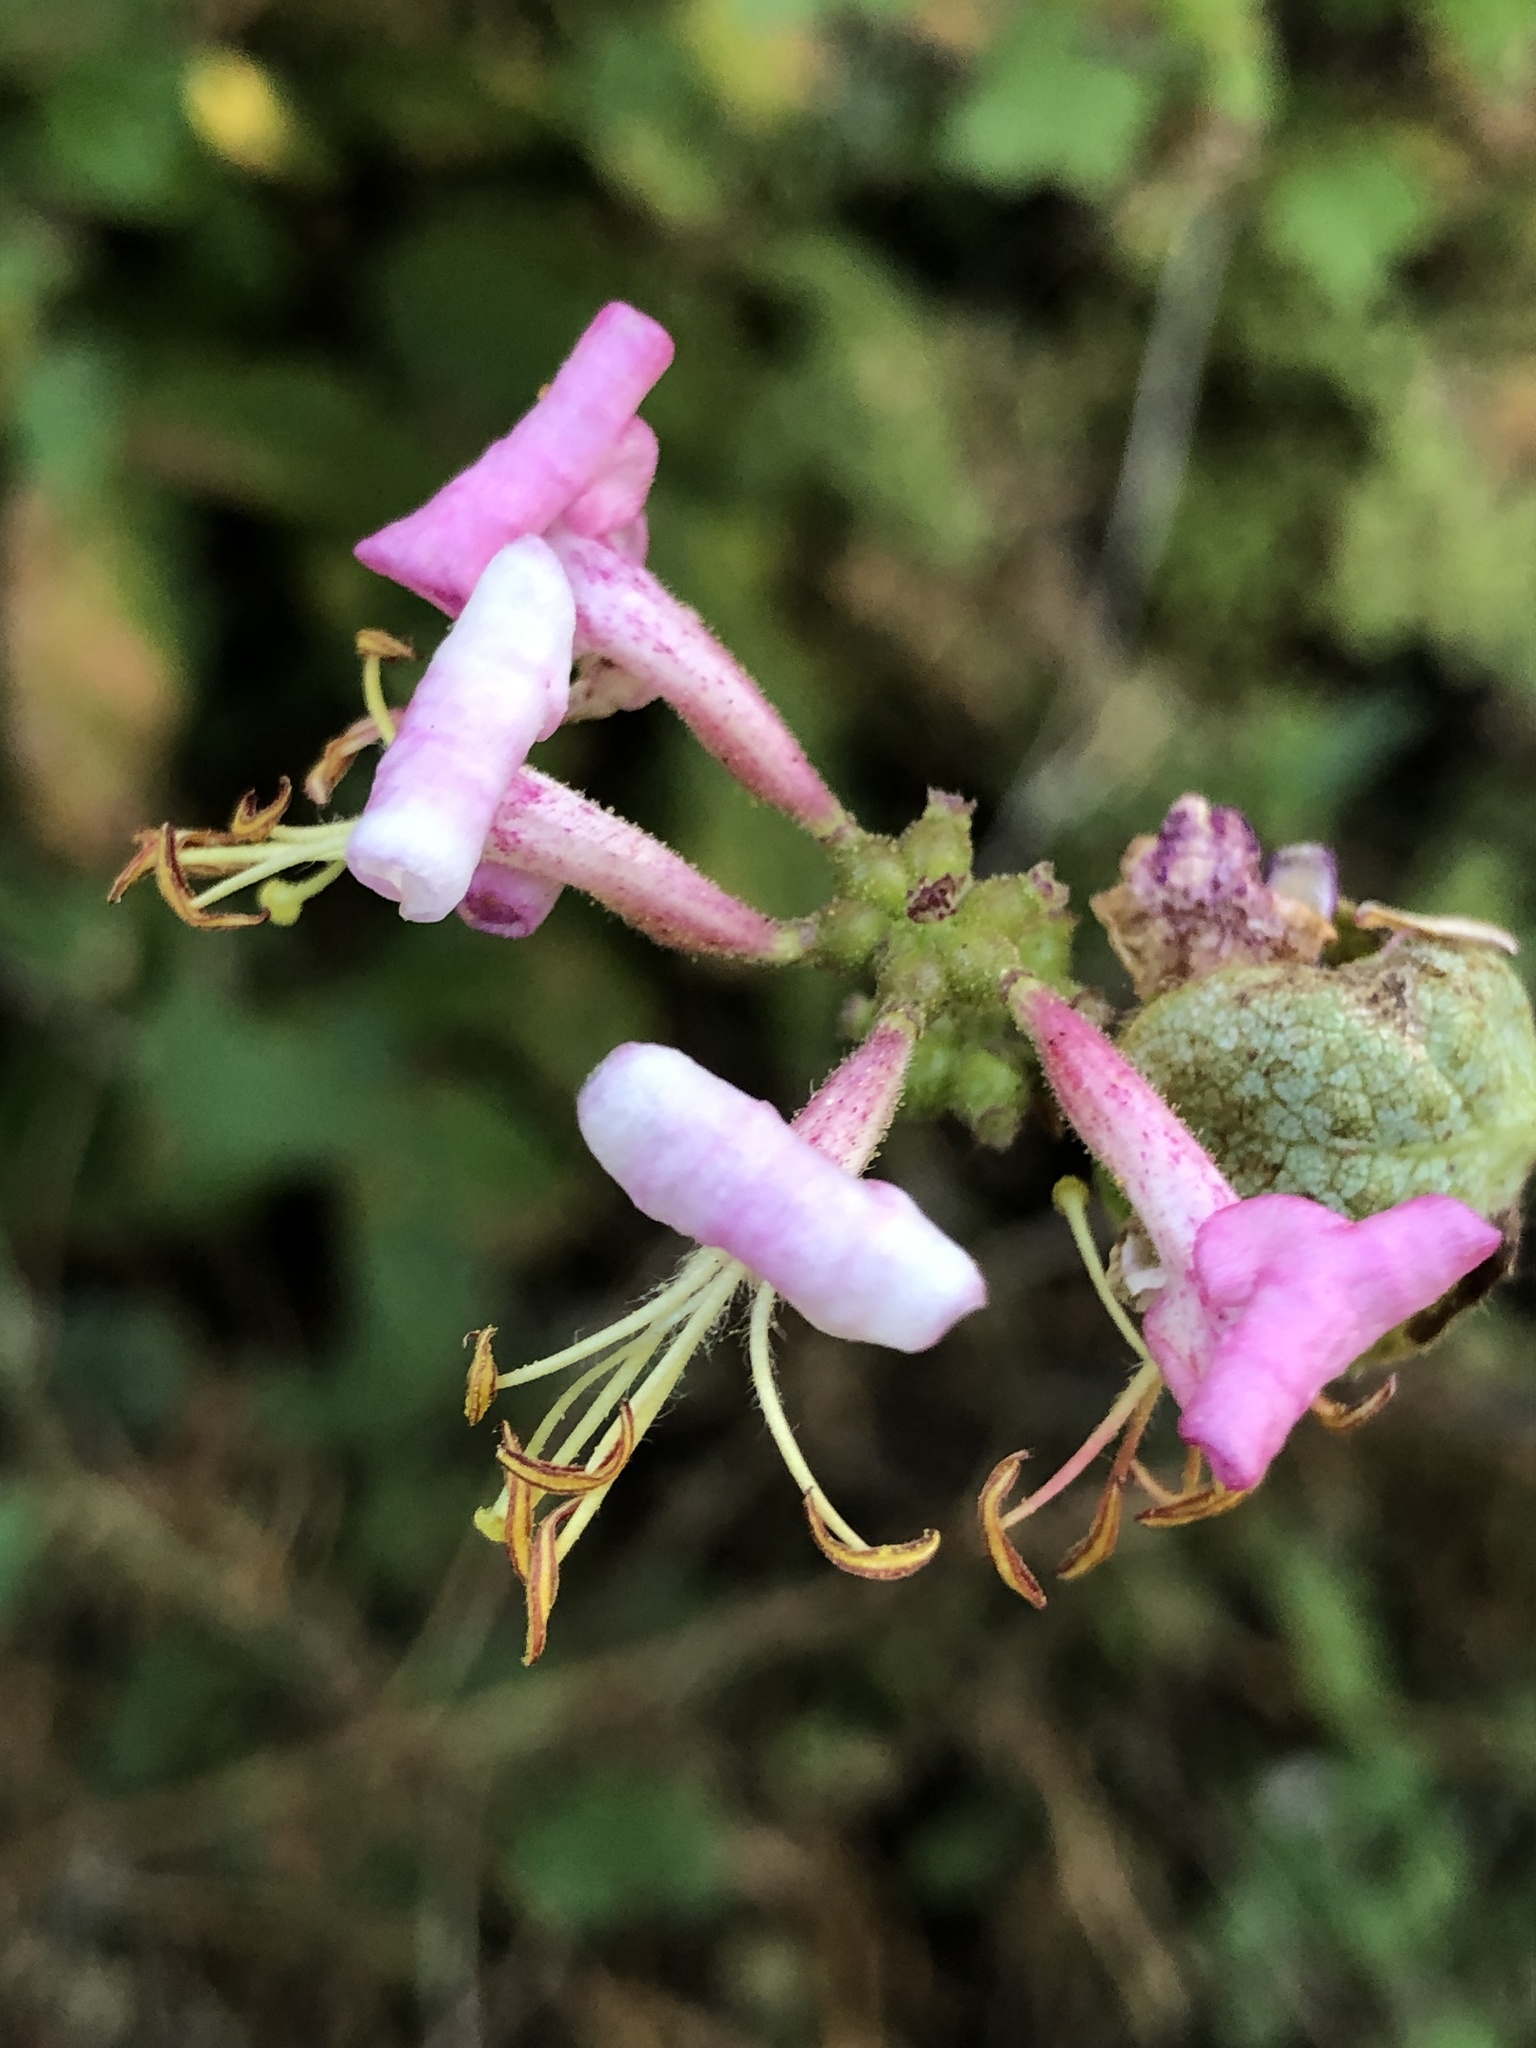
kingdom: Plantae
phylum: Tracheophyta
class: Magnoliopsida
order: Dipsacales
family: Caprifoliaceae
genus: Lonicera
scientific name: Lonicera hispidula
